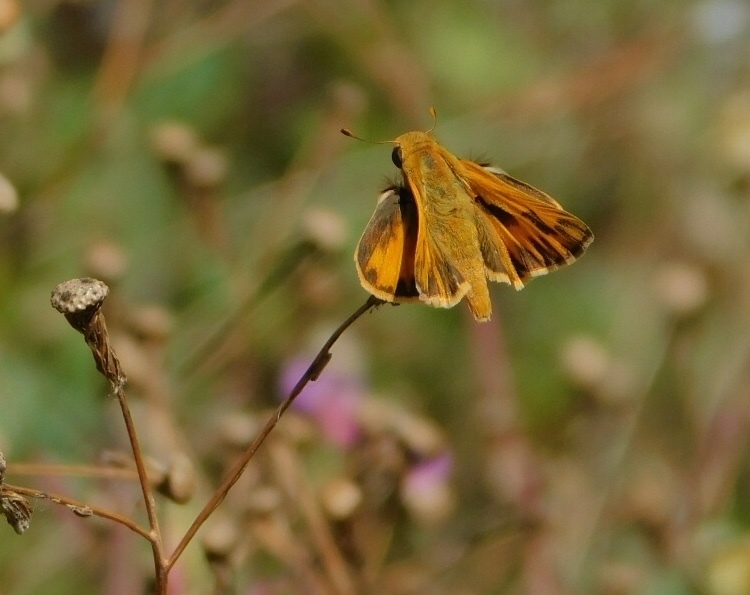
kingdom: Animalia
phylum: Arthropoda
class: Insecta
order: Lepidoptera
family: Hesperiidae
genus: Hylephila
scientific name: Hylephila phyleus
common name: Fiery skipper
